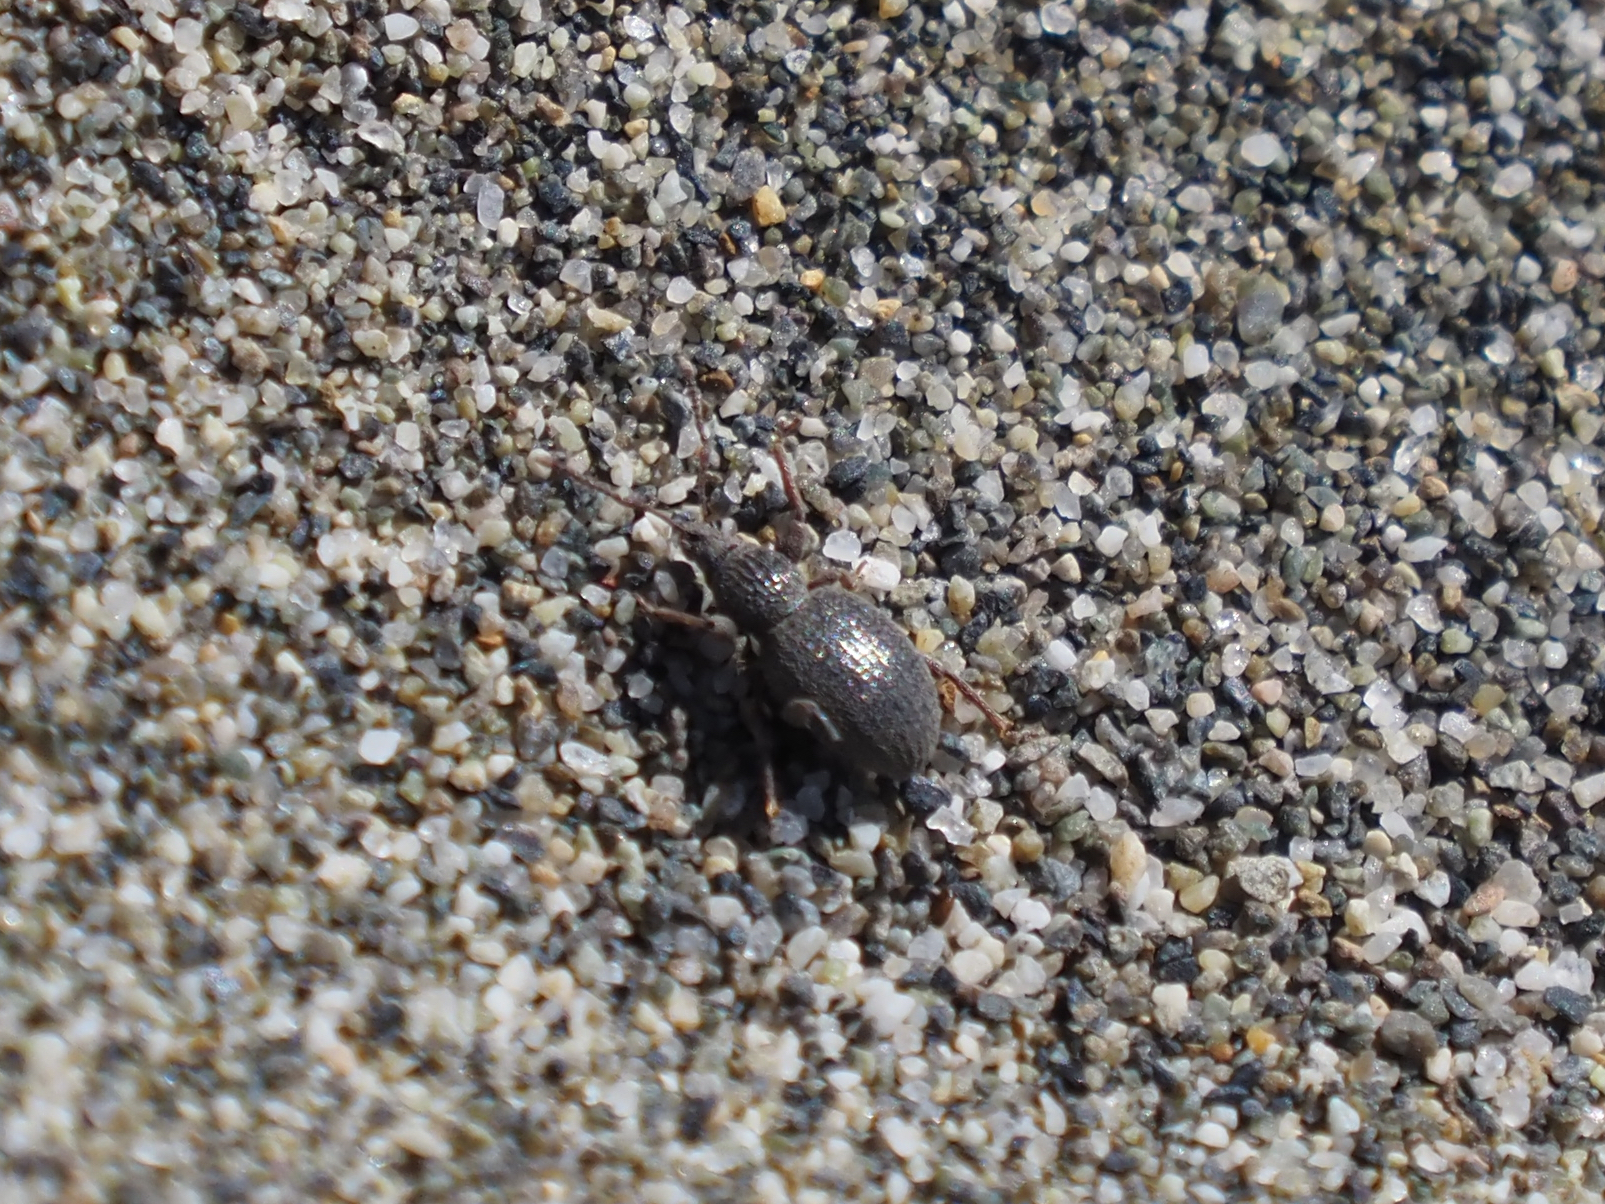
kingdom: Animalia
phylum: Arthropoda
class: Insecta
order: Coleoptera
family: Curculionidae
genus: Otiorhynchus
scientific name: Otiorhynchus ovatus
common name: Strawberry root weevil
